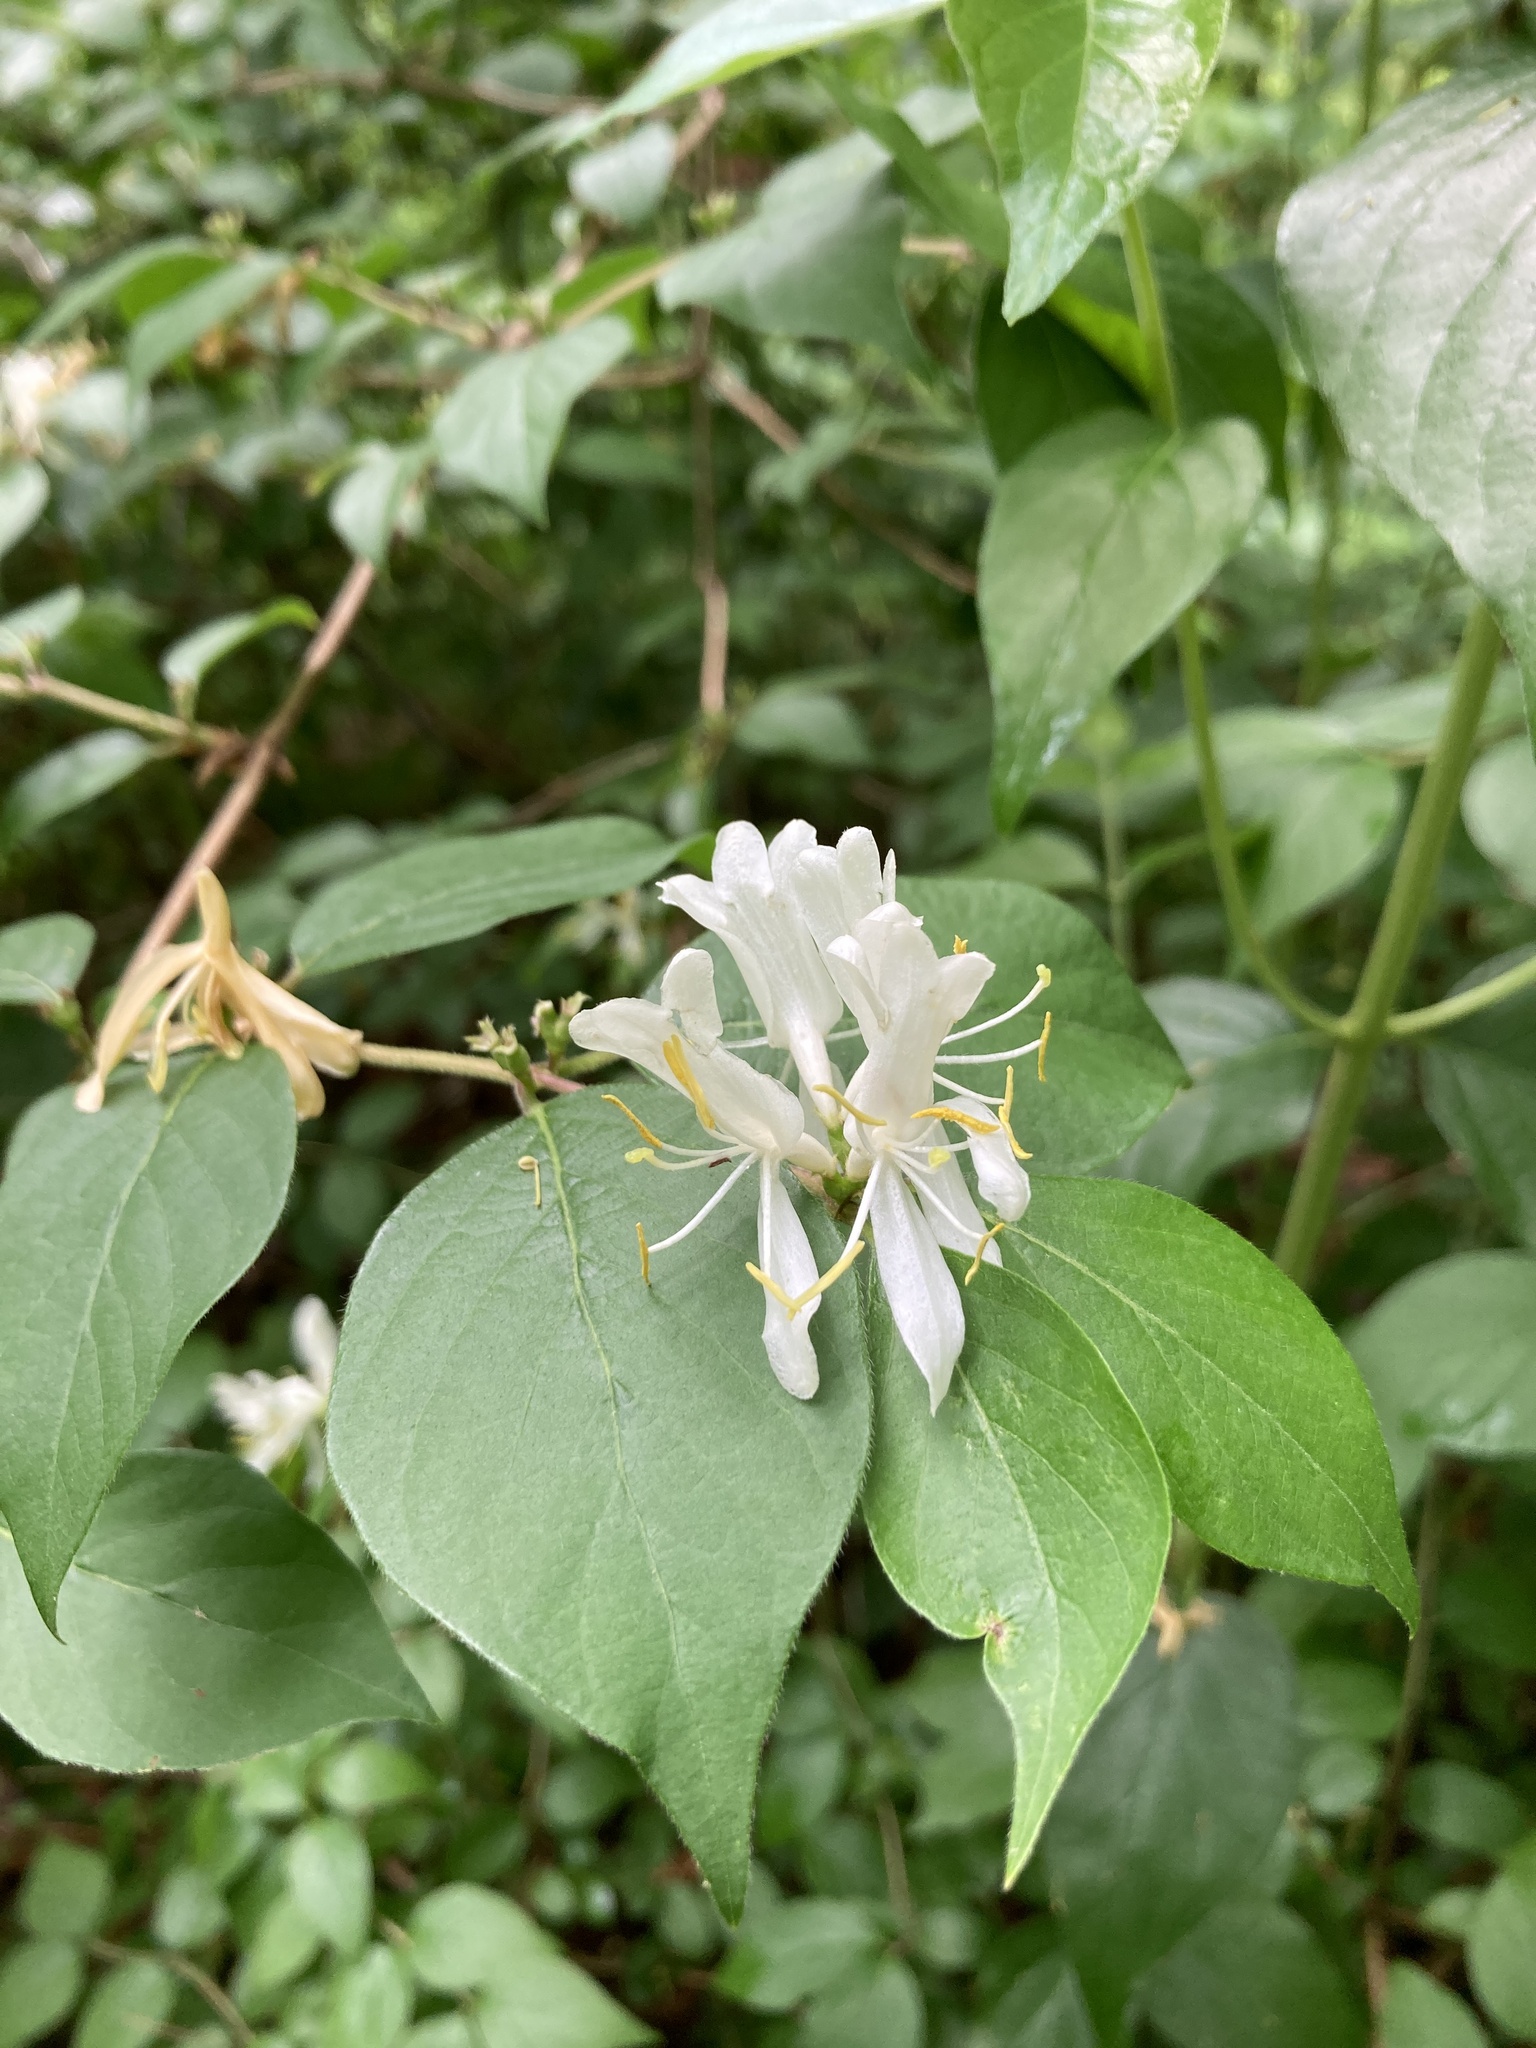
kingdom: Plantae
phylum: Tracheophyta
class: Magnoliopsida
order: Dipsacales
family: Caprifoliaceae
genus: Lonicera
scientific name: Lonicera maackii
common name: Amur honeysuckle
